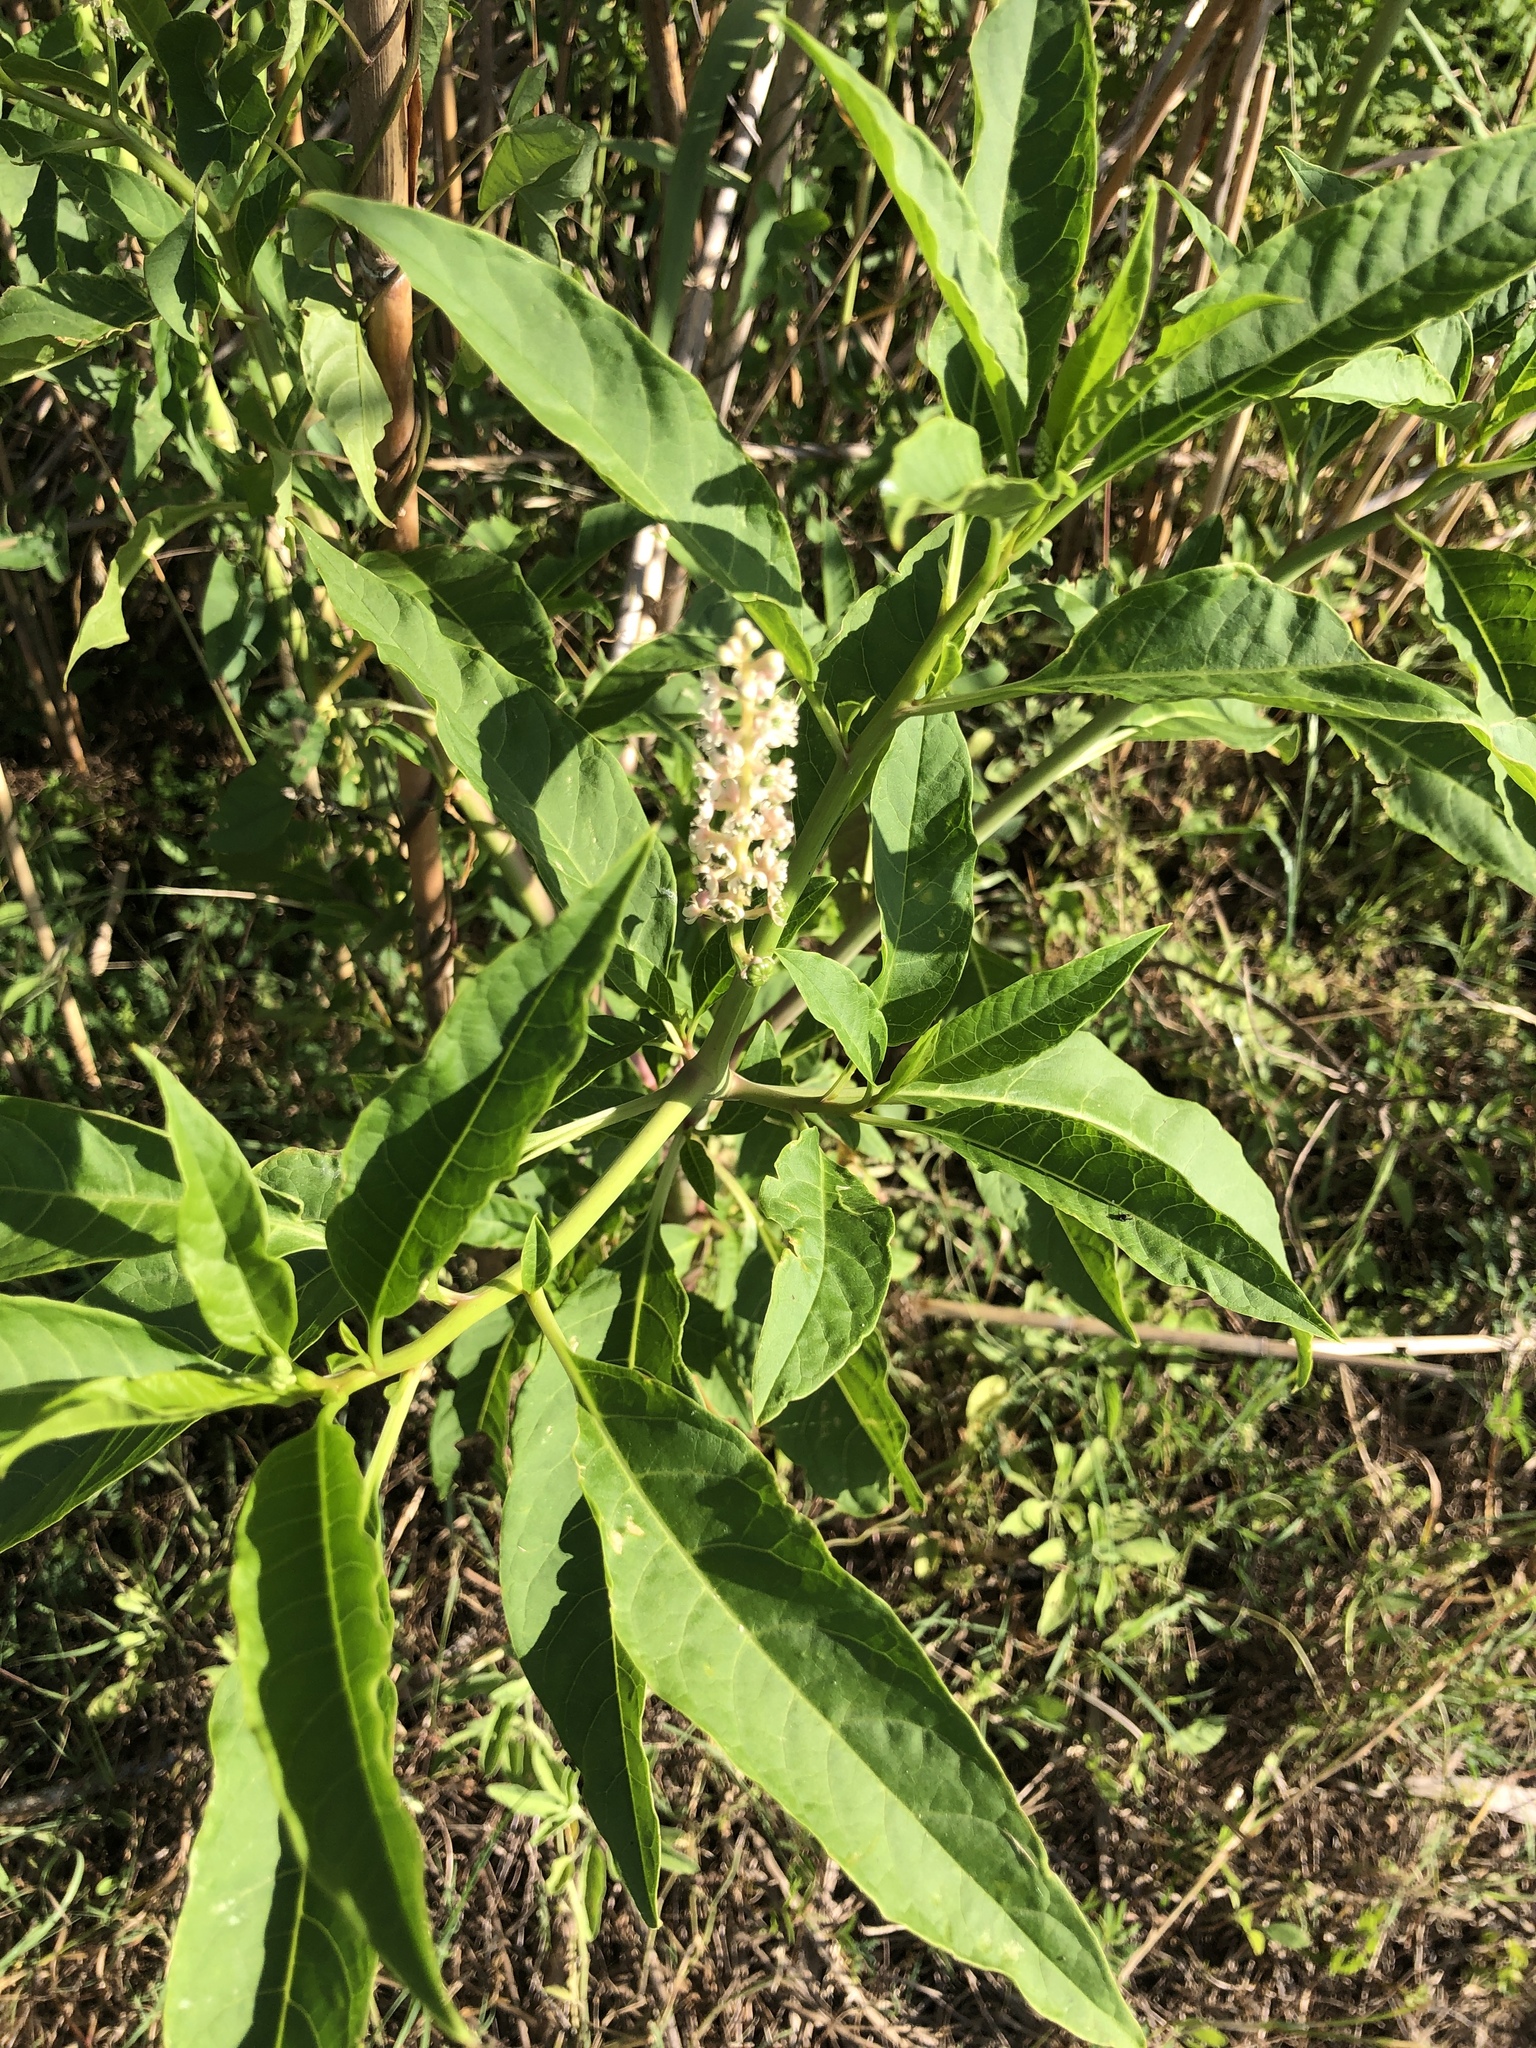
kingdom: Plantae
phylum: Tracheophyta
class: Magnoliopsida
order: Caryophyllales
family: Phytolaccaceae
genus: Phytolacca
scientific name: Phytolacca americana
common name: American pokeweed
